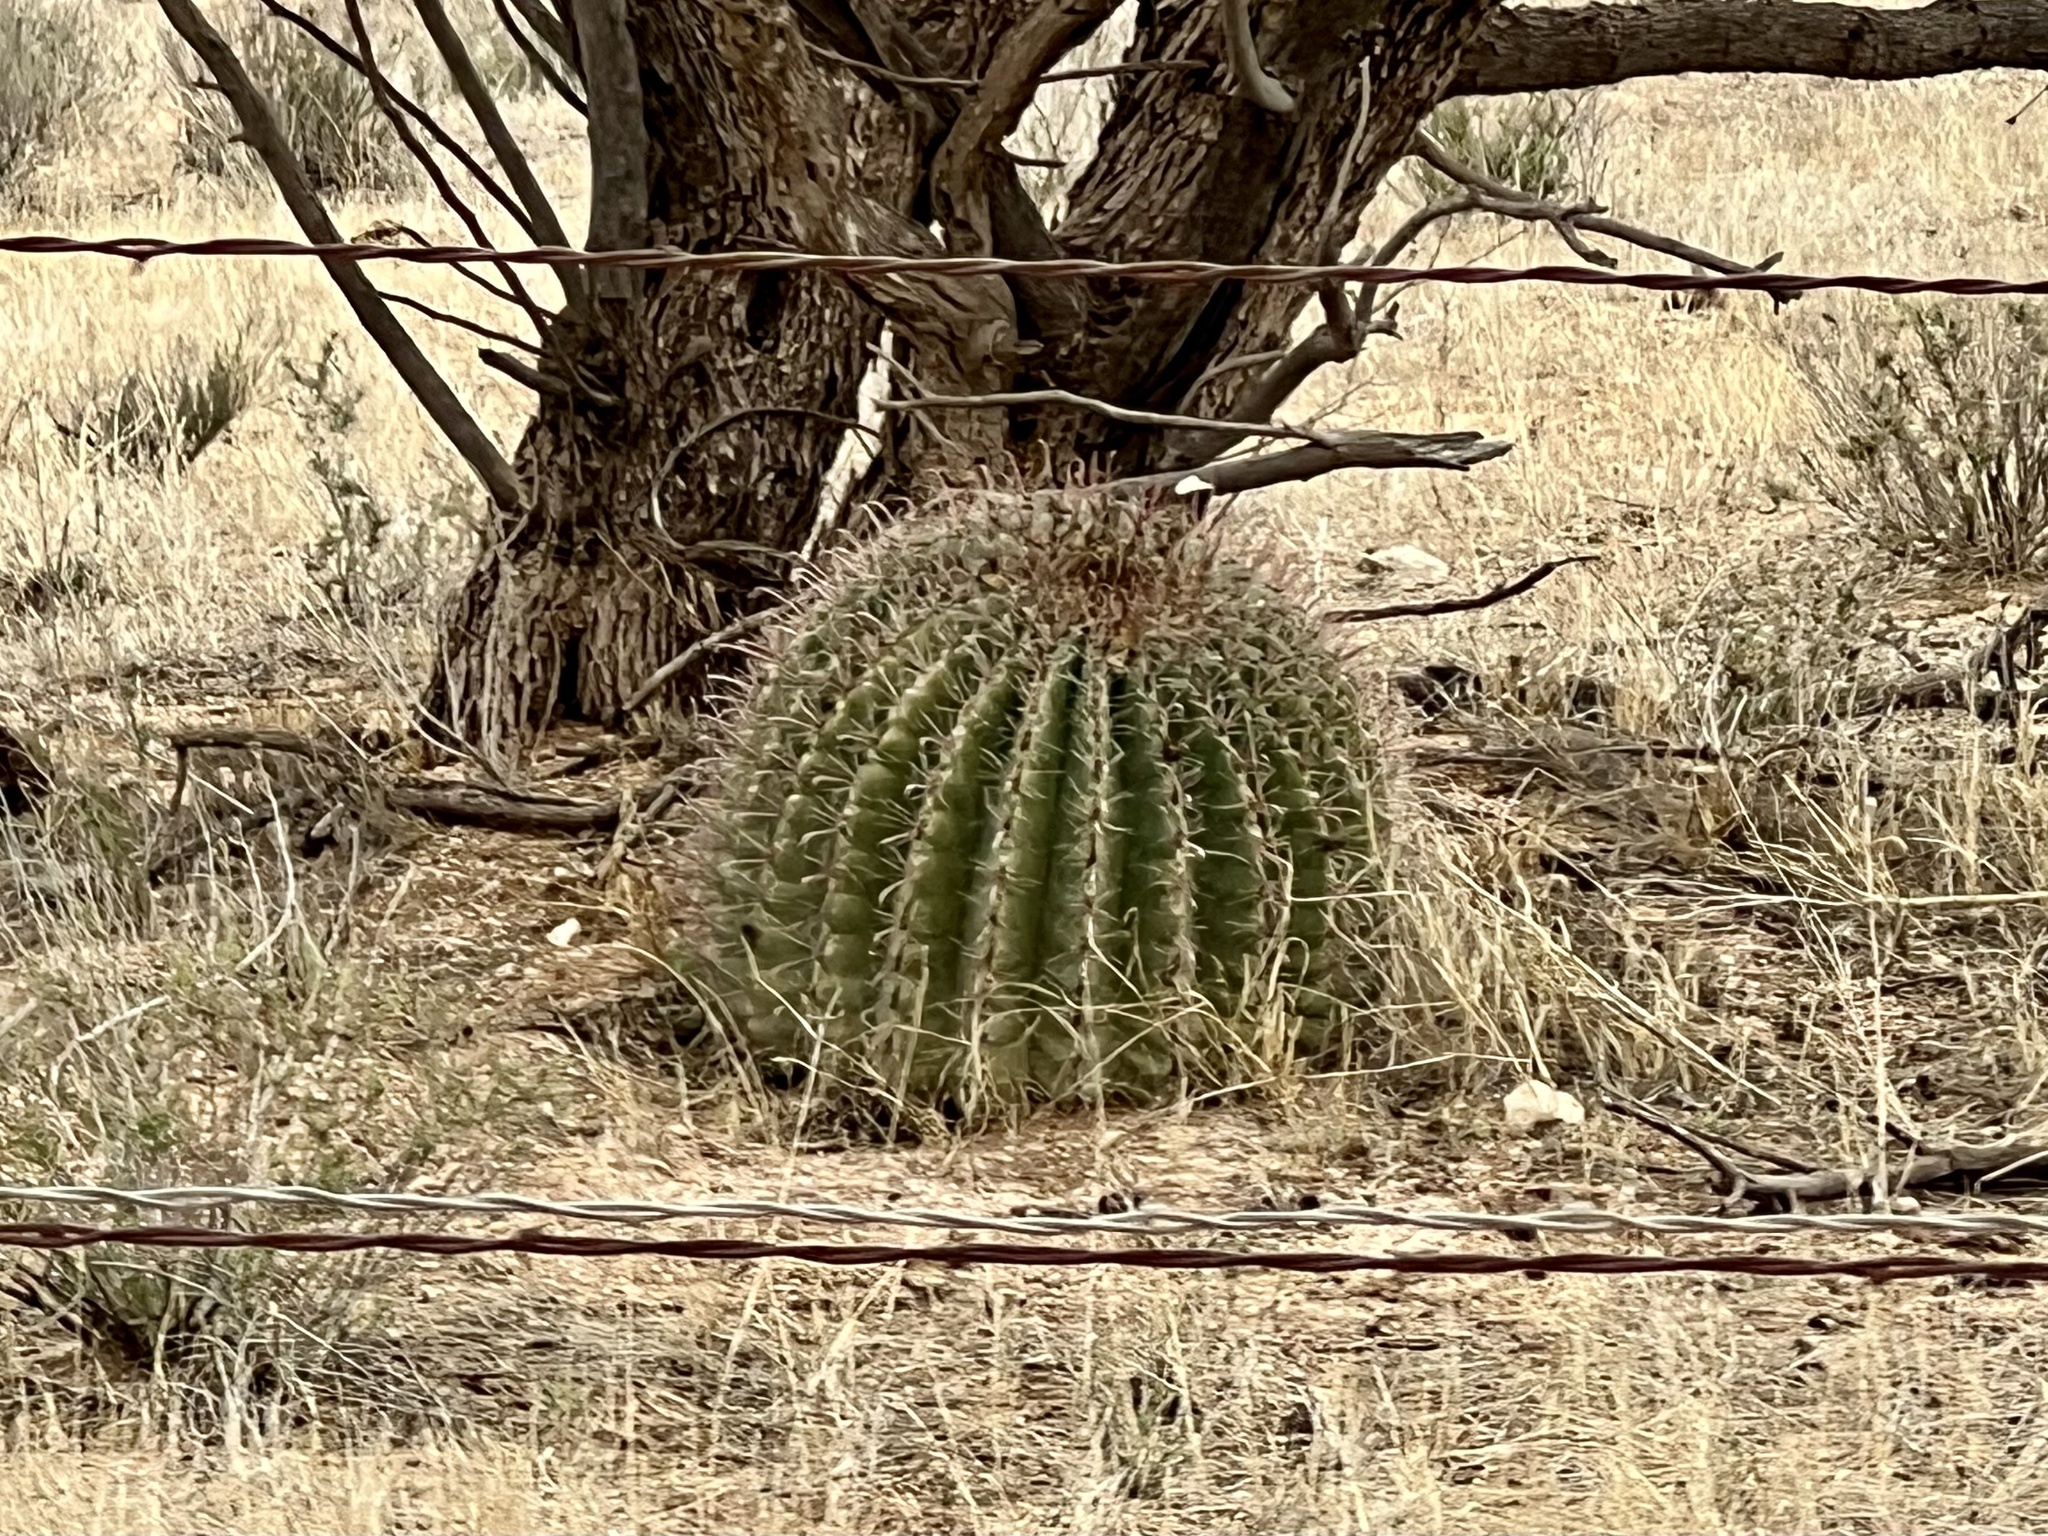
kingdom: Plantae
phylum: Tracheophyta
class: Magnoliopsida
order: Caryophyllales
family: Cactaceae
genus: Ferocactus
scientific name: Ferocactus wislizeni
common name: Candy barrel cactus
